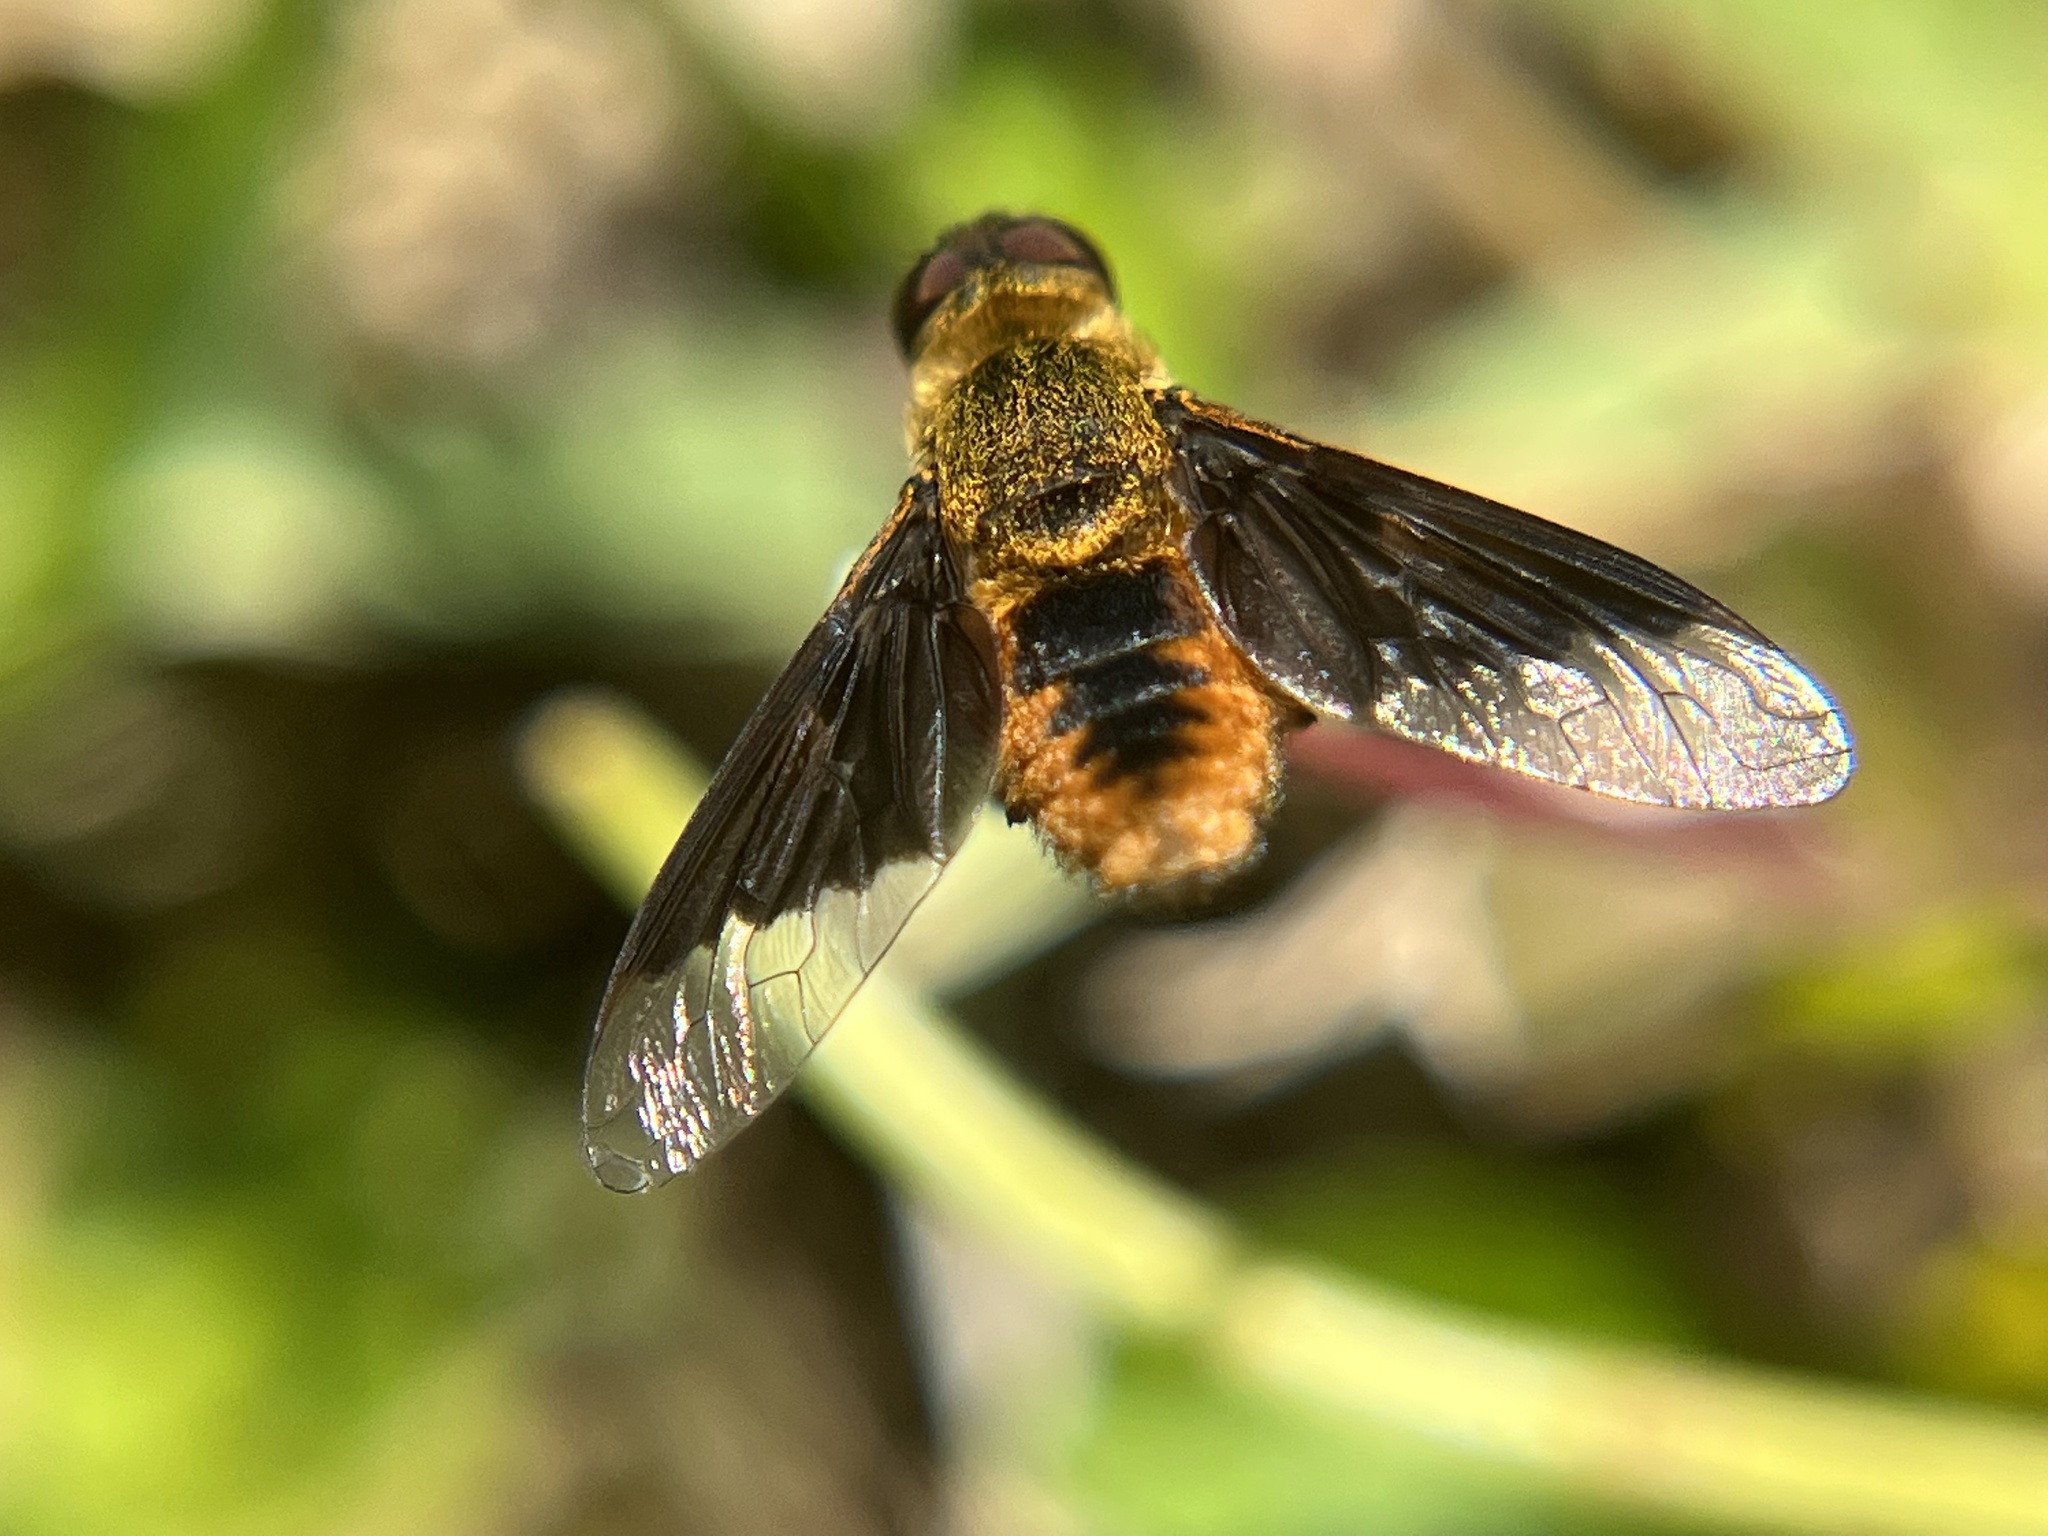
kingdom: Animalia
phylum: Arthropoda
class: Insecta
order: Diptera
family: Bombyliidae
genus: Chrysanthrax
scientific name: Chrysanthrax cypris
